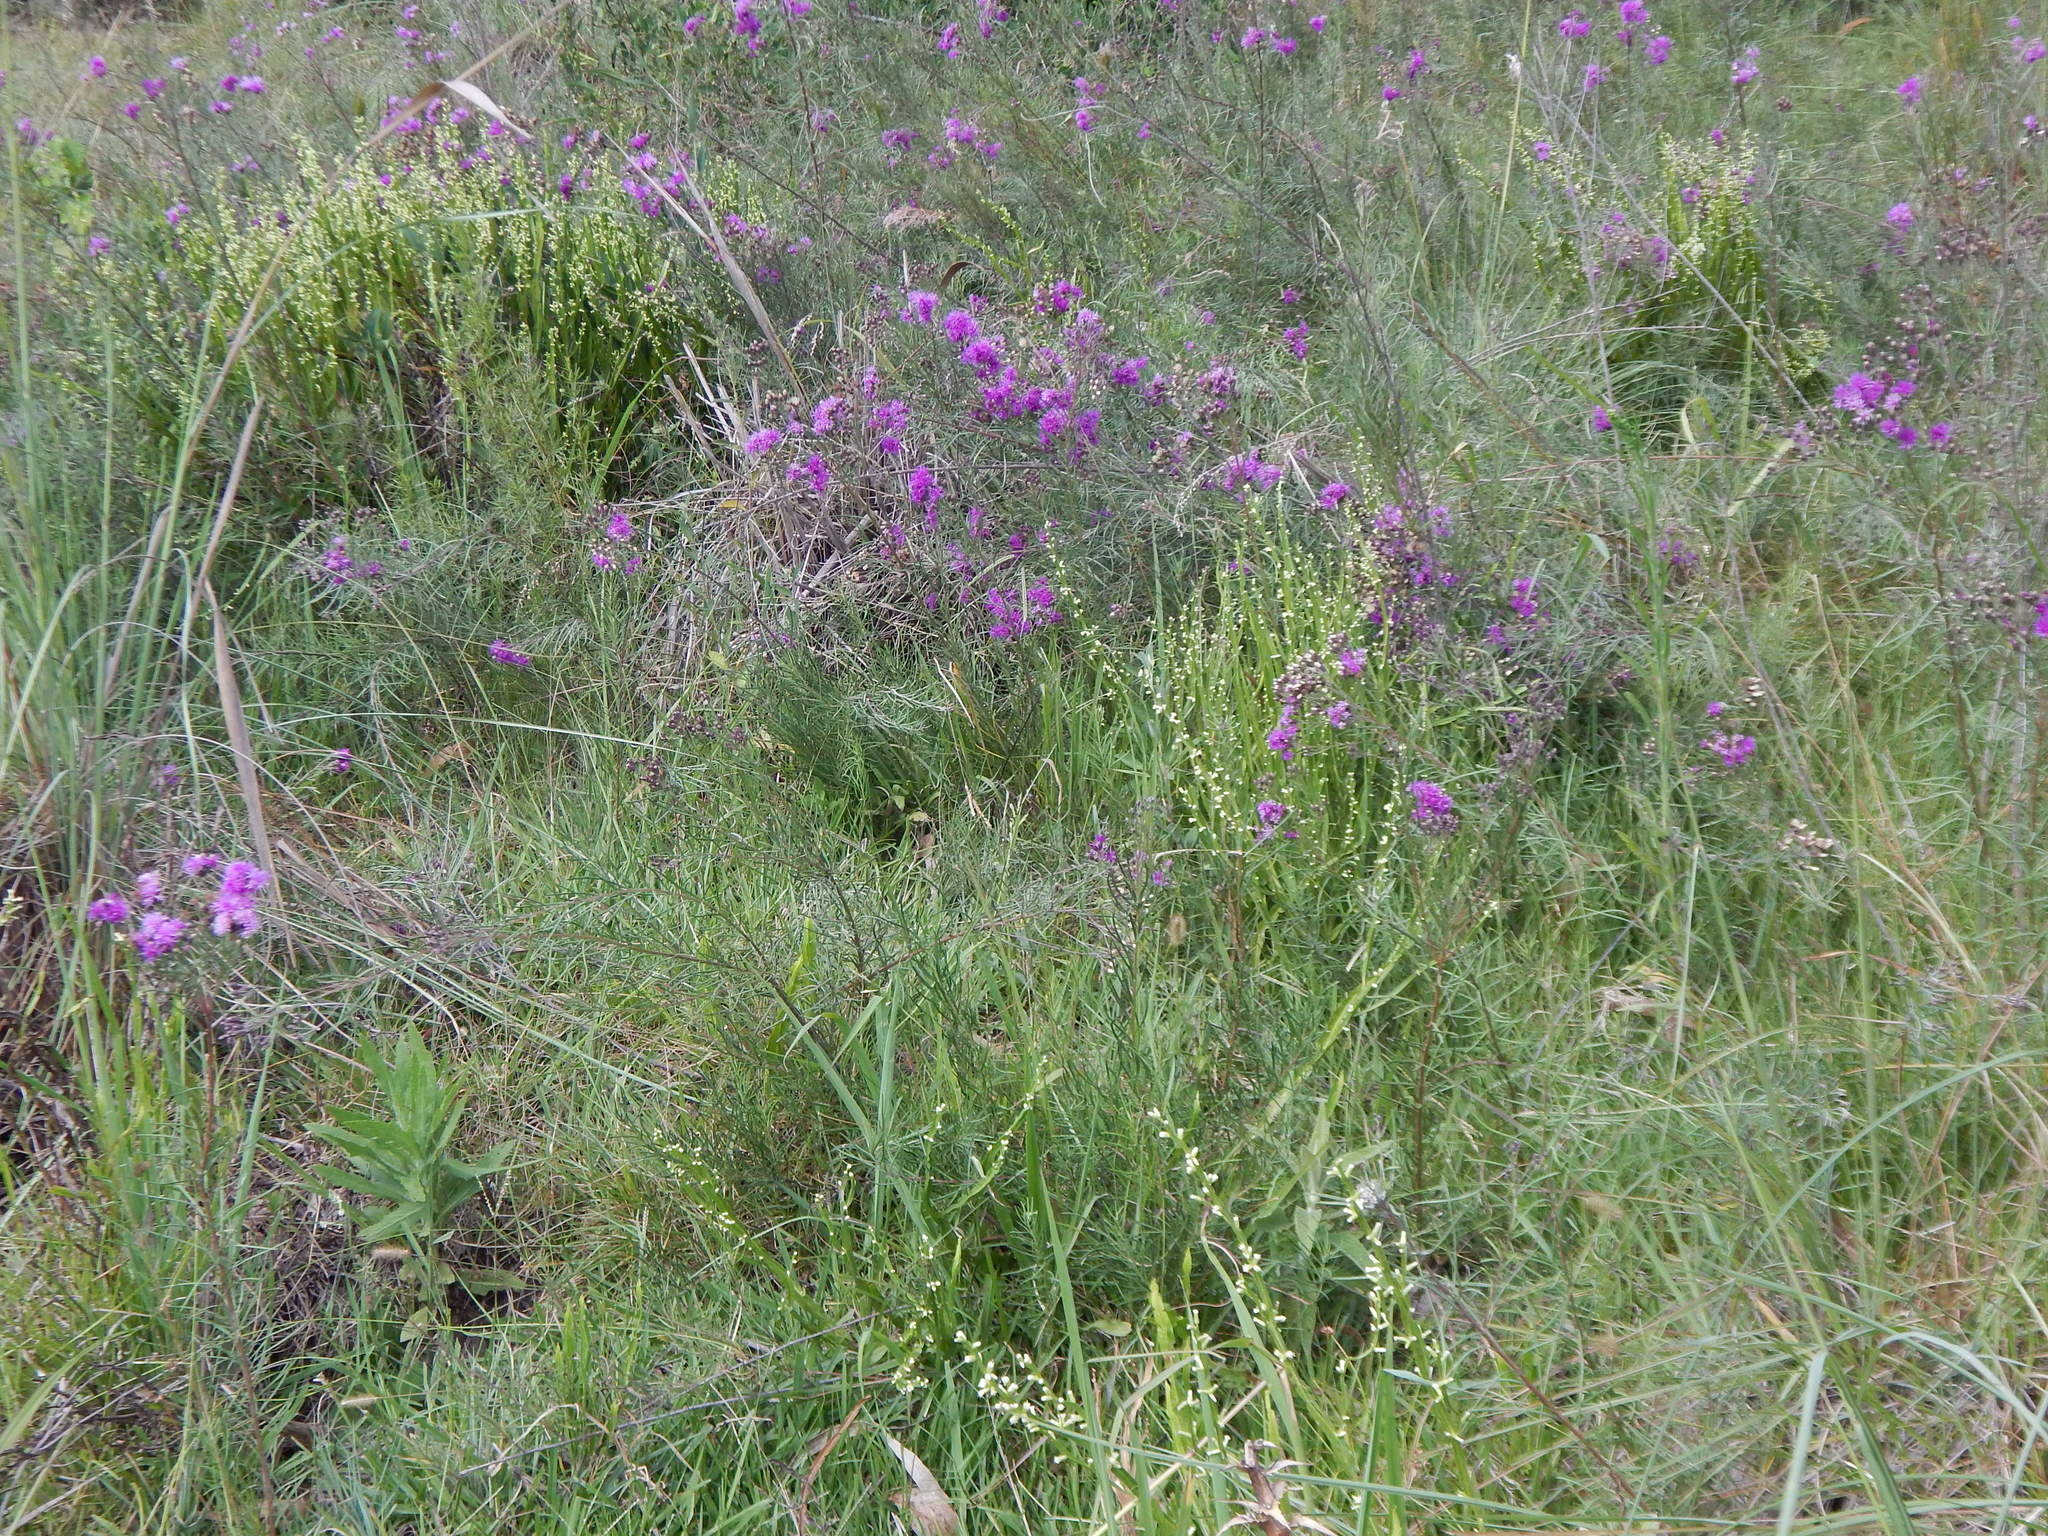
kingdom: Plantae
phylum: Tracheophyta
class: Magnoliopsida
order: Asterales
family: Asteraceae
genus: Lessingianthus
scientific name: Lessingianthus rubricaulis
